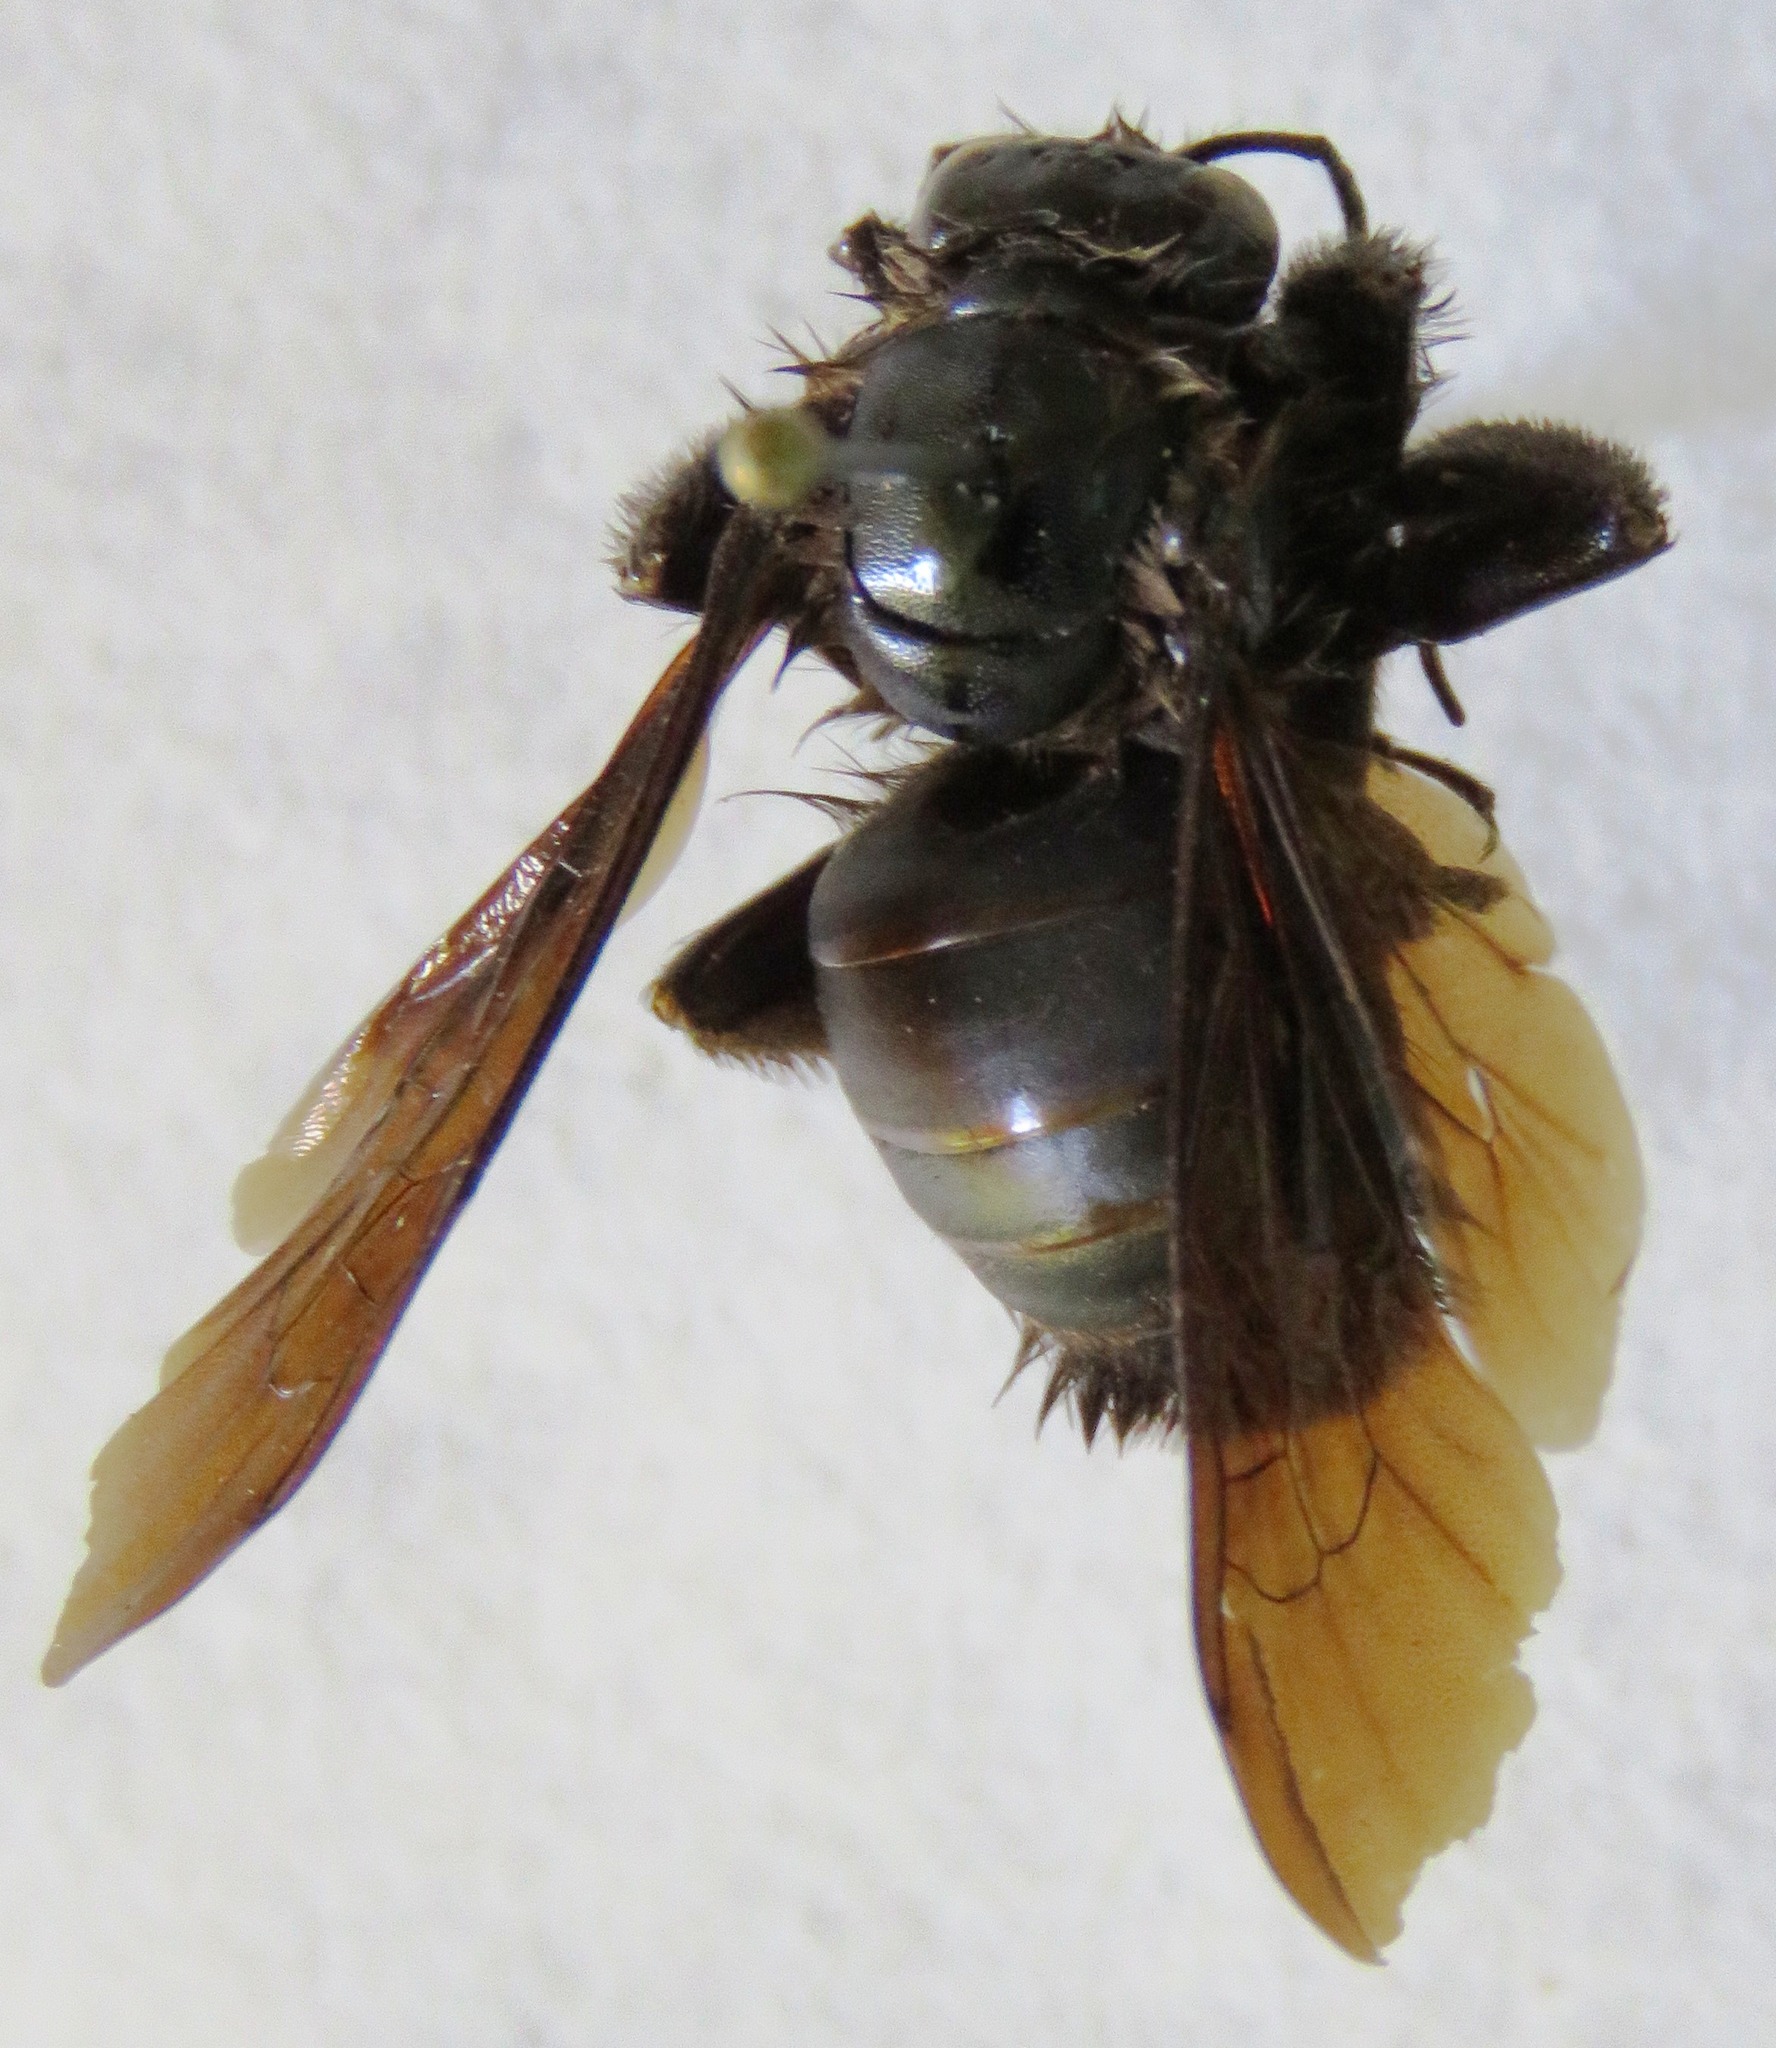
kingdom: Animalia
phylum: Arthropoda
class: Insecta
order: Hymenoptera
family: Apidae
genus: Bombus
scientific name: Bombus pullatus
